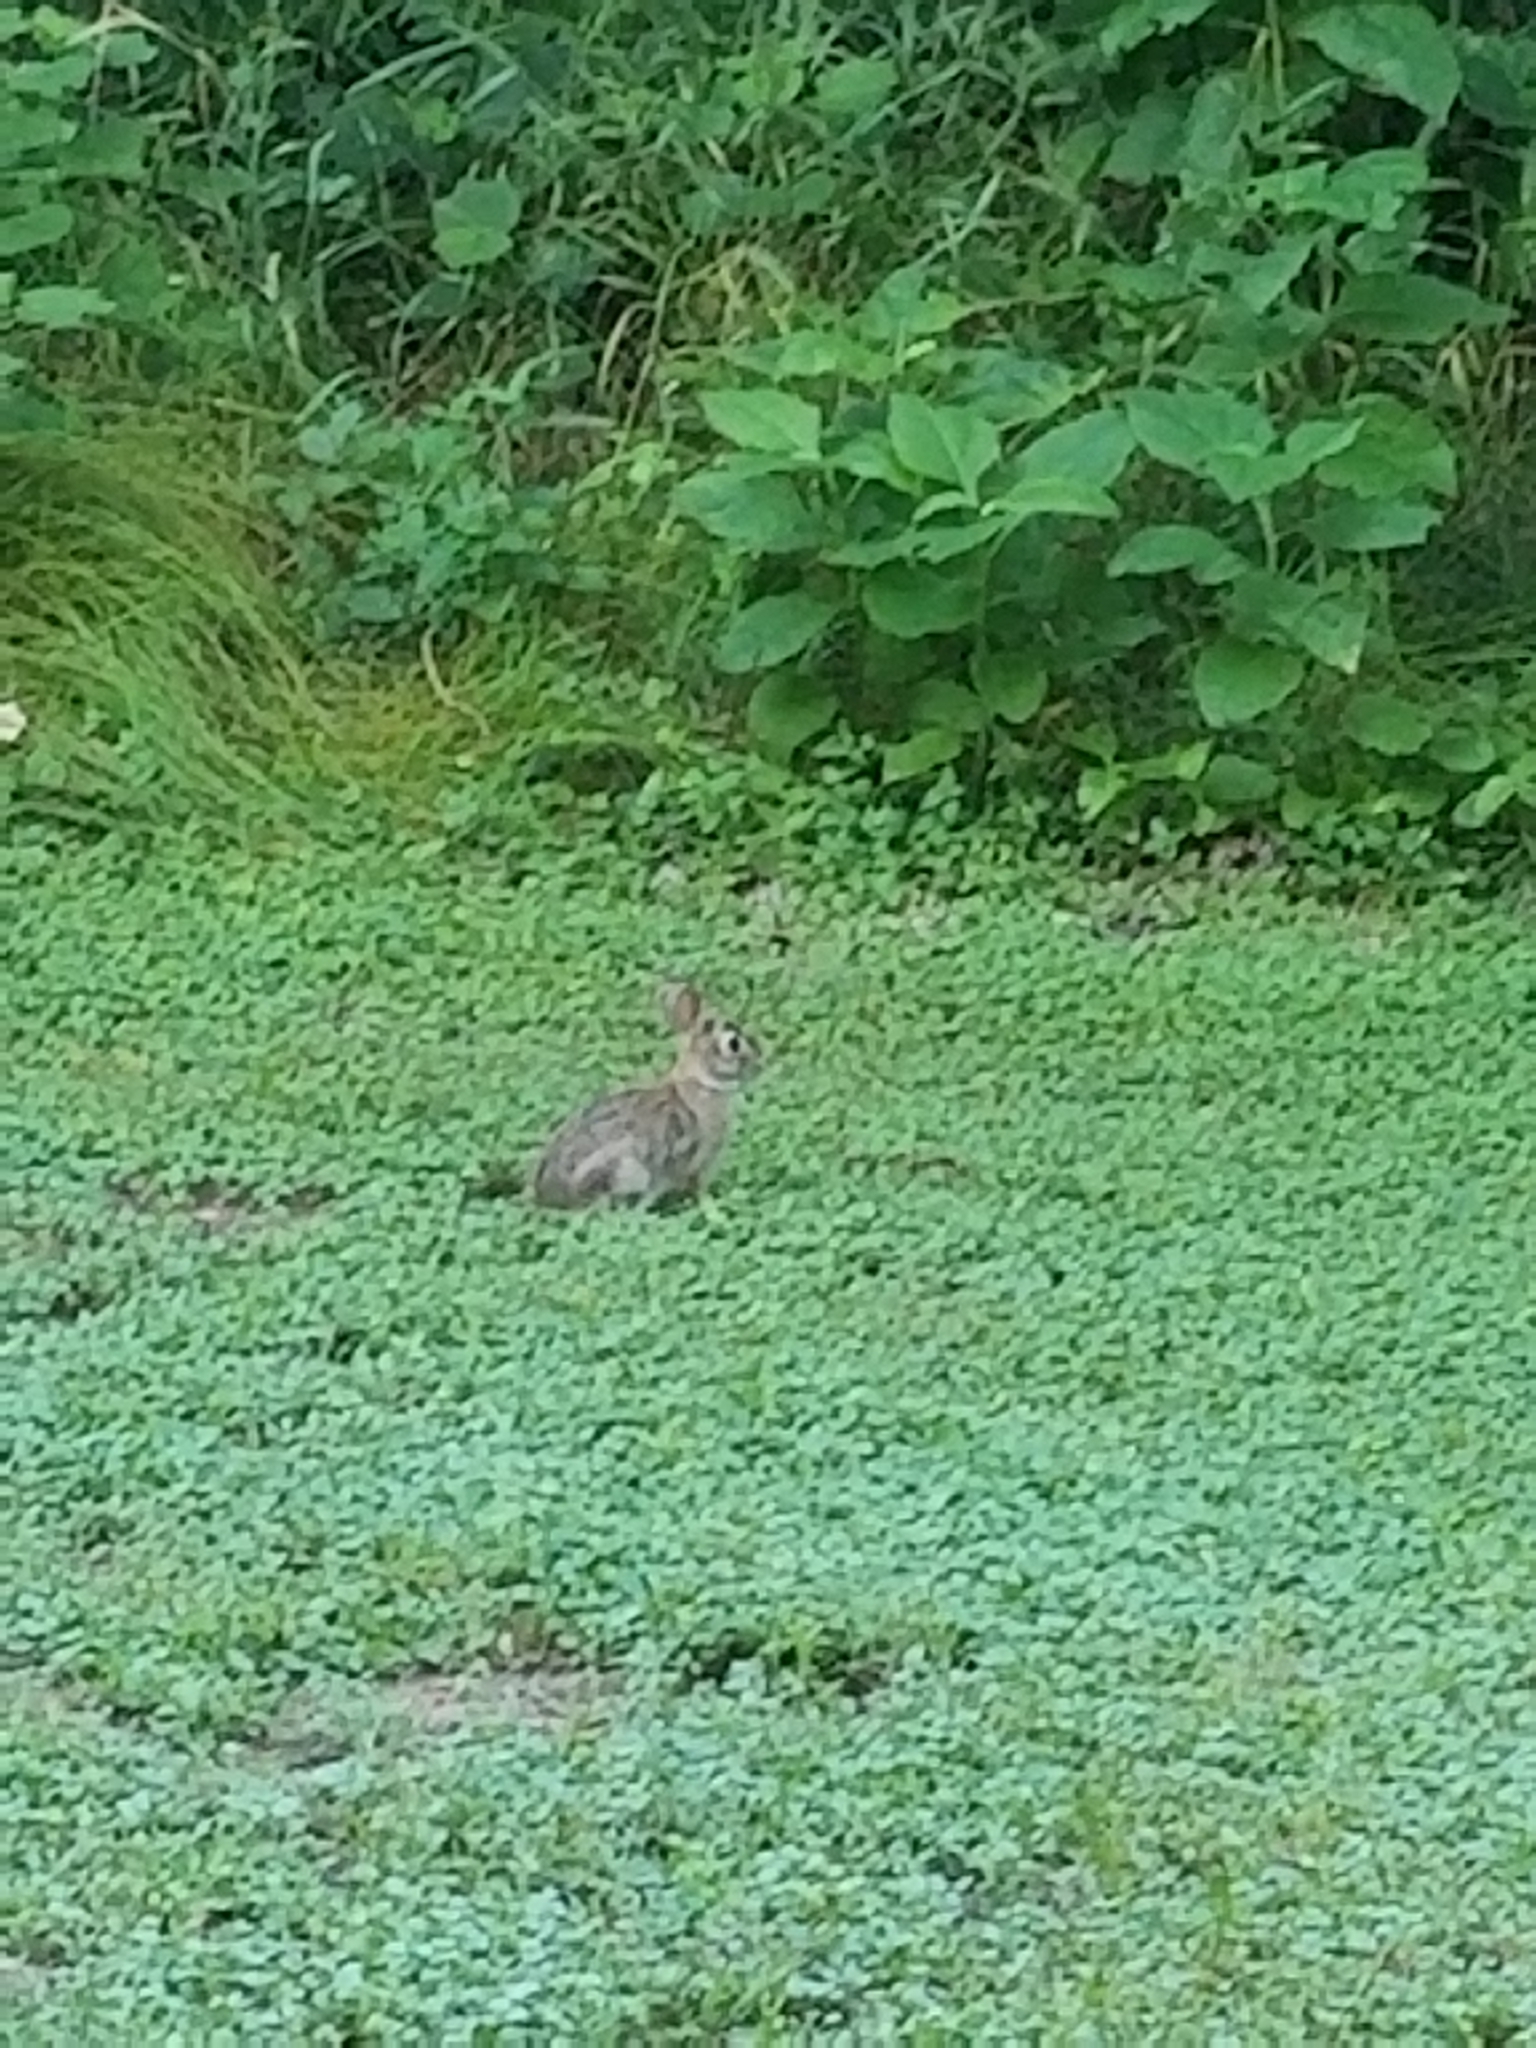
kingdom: Animalia
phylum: Chordata
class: Mammalia
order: Lagomorpha
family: Leporidae
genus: Sylvilagus
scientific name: Sylvilagus floridanus
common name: Eastern cottontail
